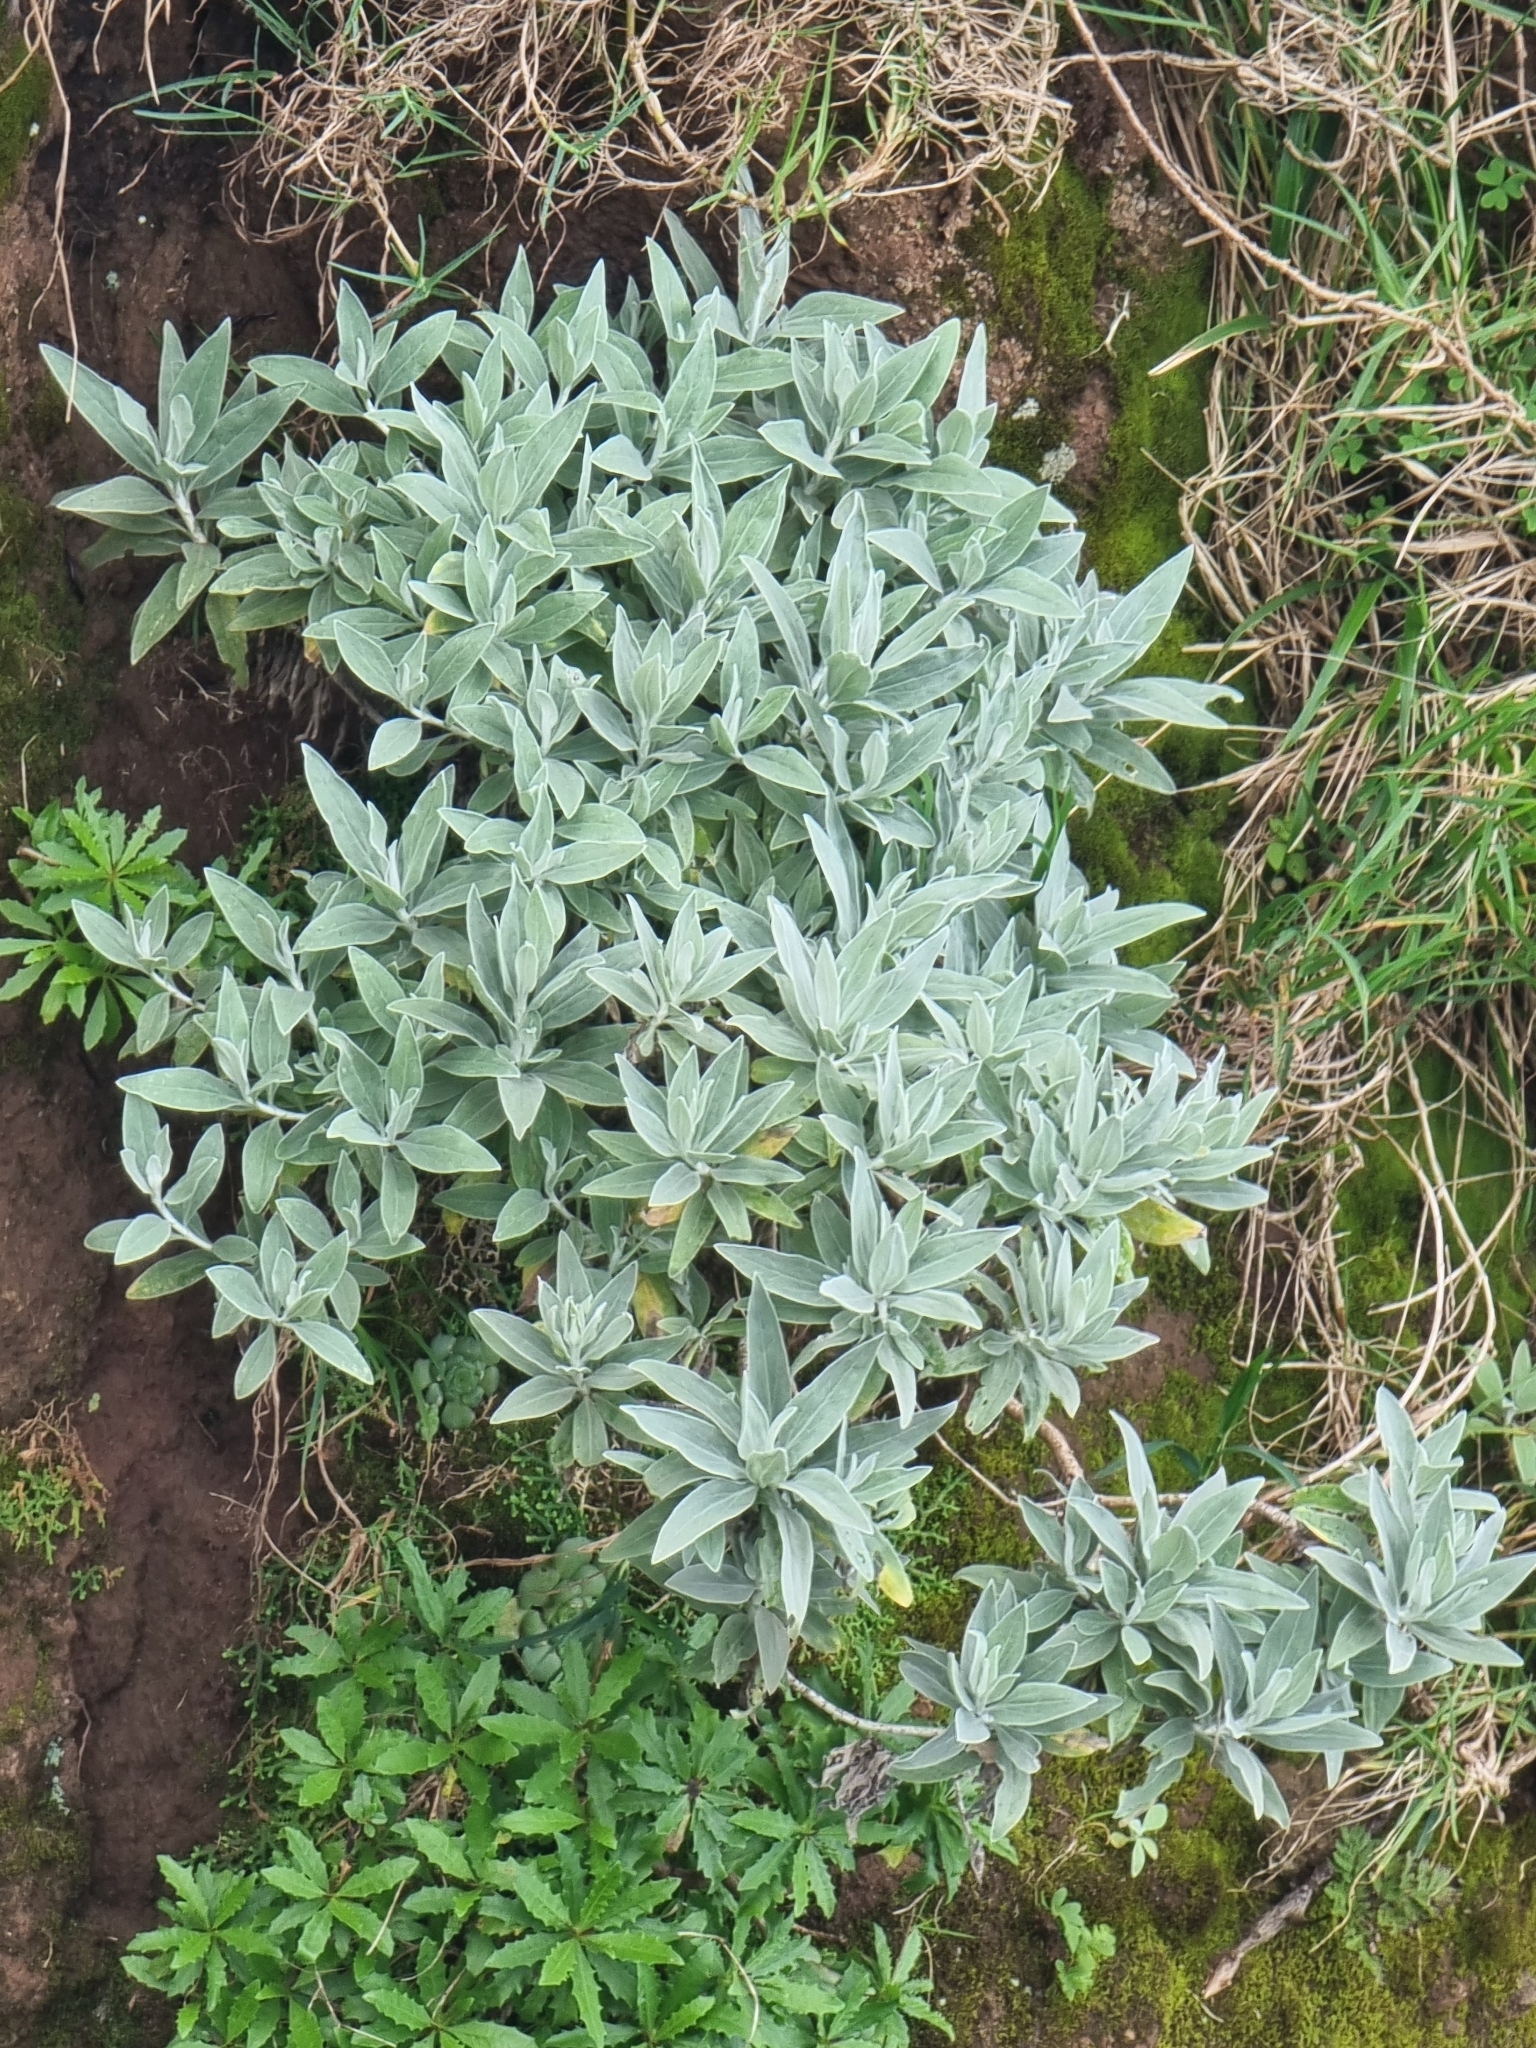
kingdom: Plantae
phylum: Tracheophyta
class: Magnoliopsida
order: Asterales
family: Asteraceae
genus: Helichrysum
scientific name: Helichrysum melaleucum
